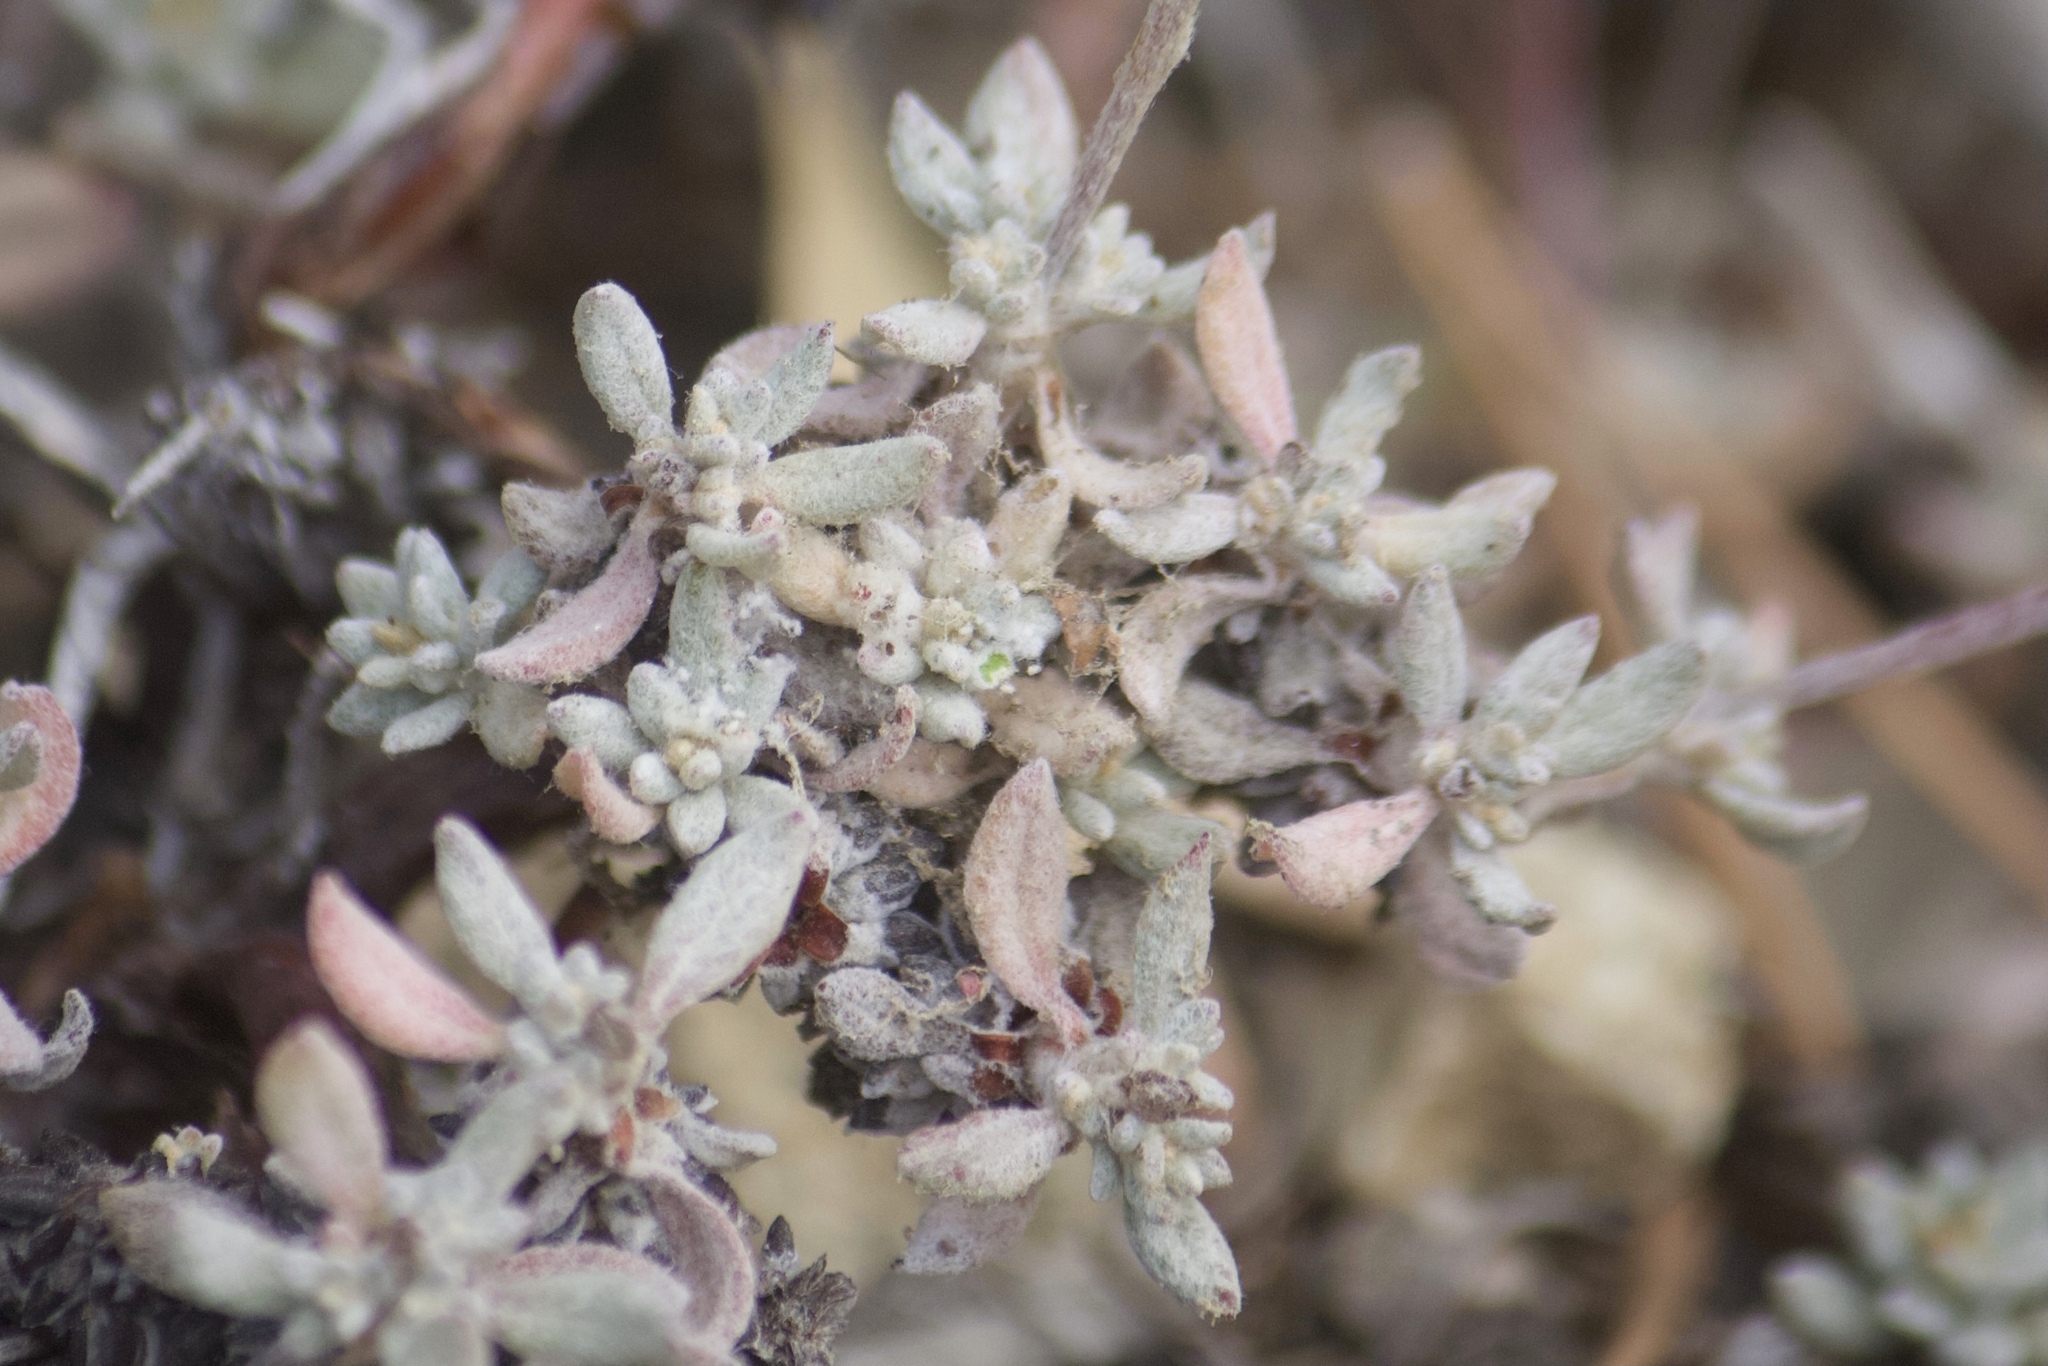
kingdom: Plantae
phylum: Tracheophyta
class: Magnoliopsida
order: Caryophyllales
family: Polygonaceae
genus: Eriogonum
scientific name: Eriogonum wrightii
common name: Bastard-sage
